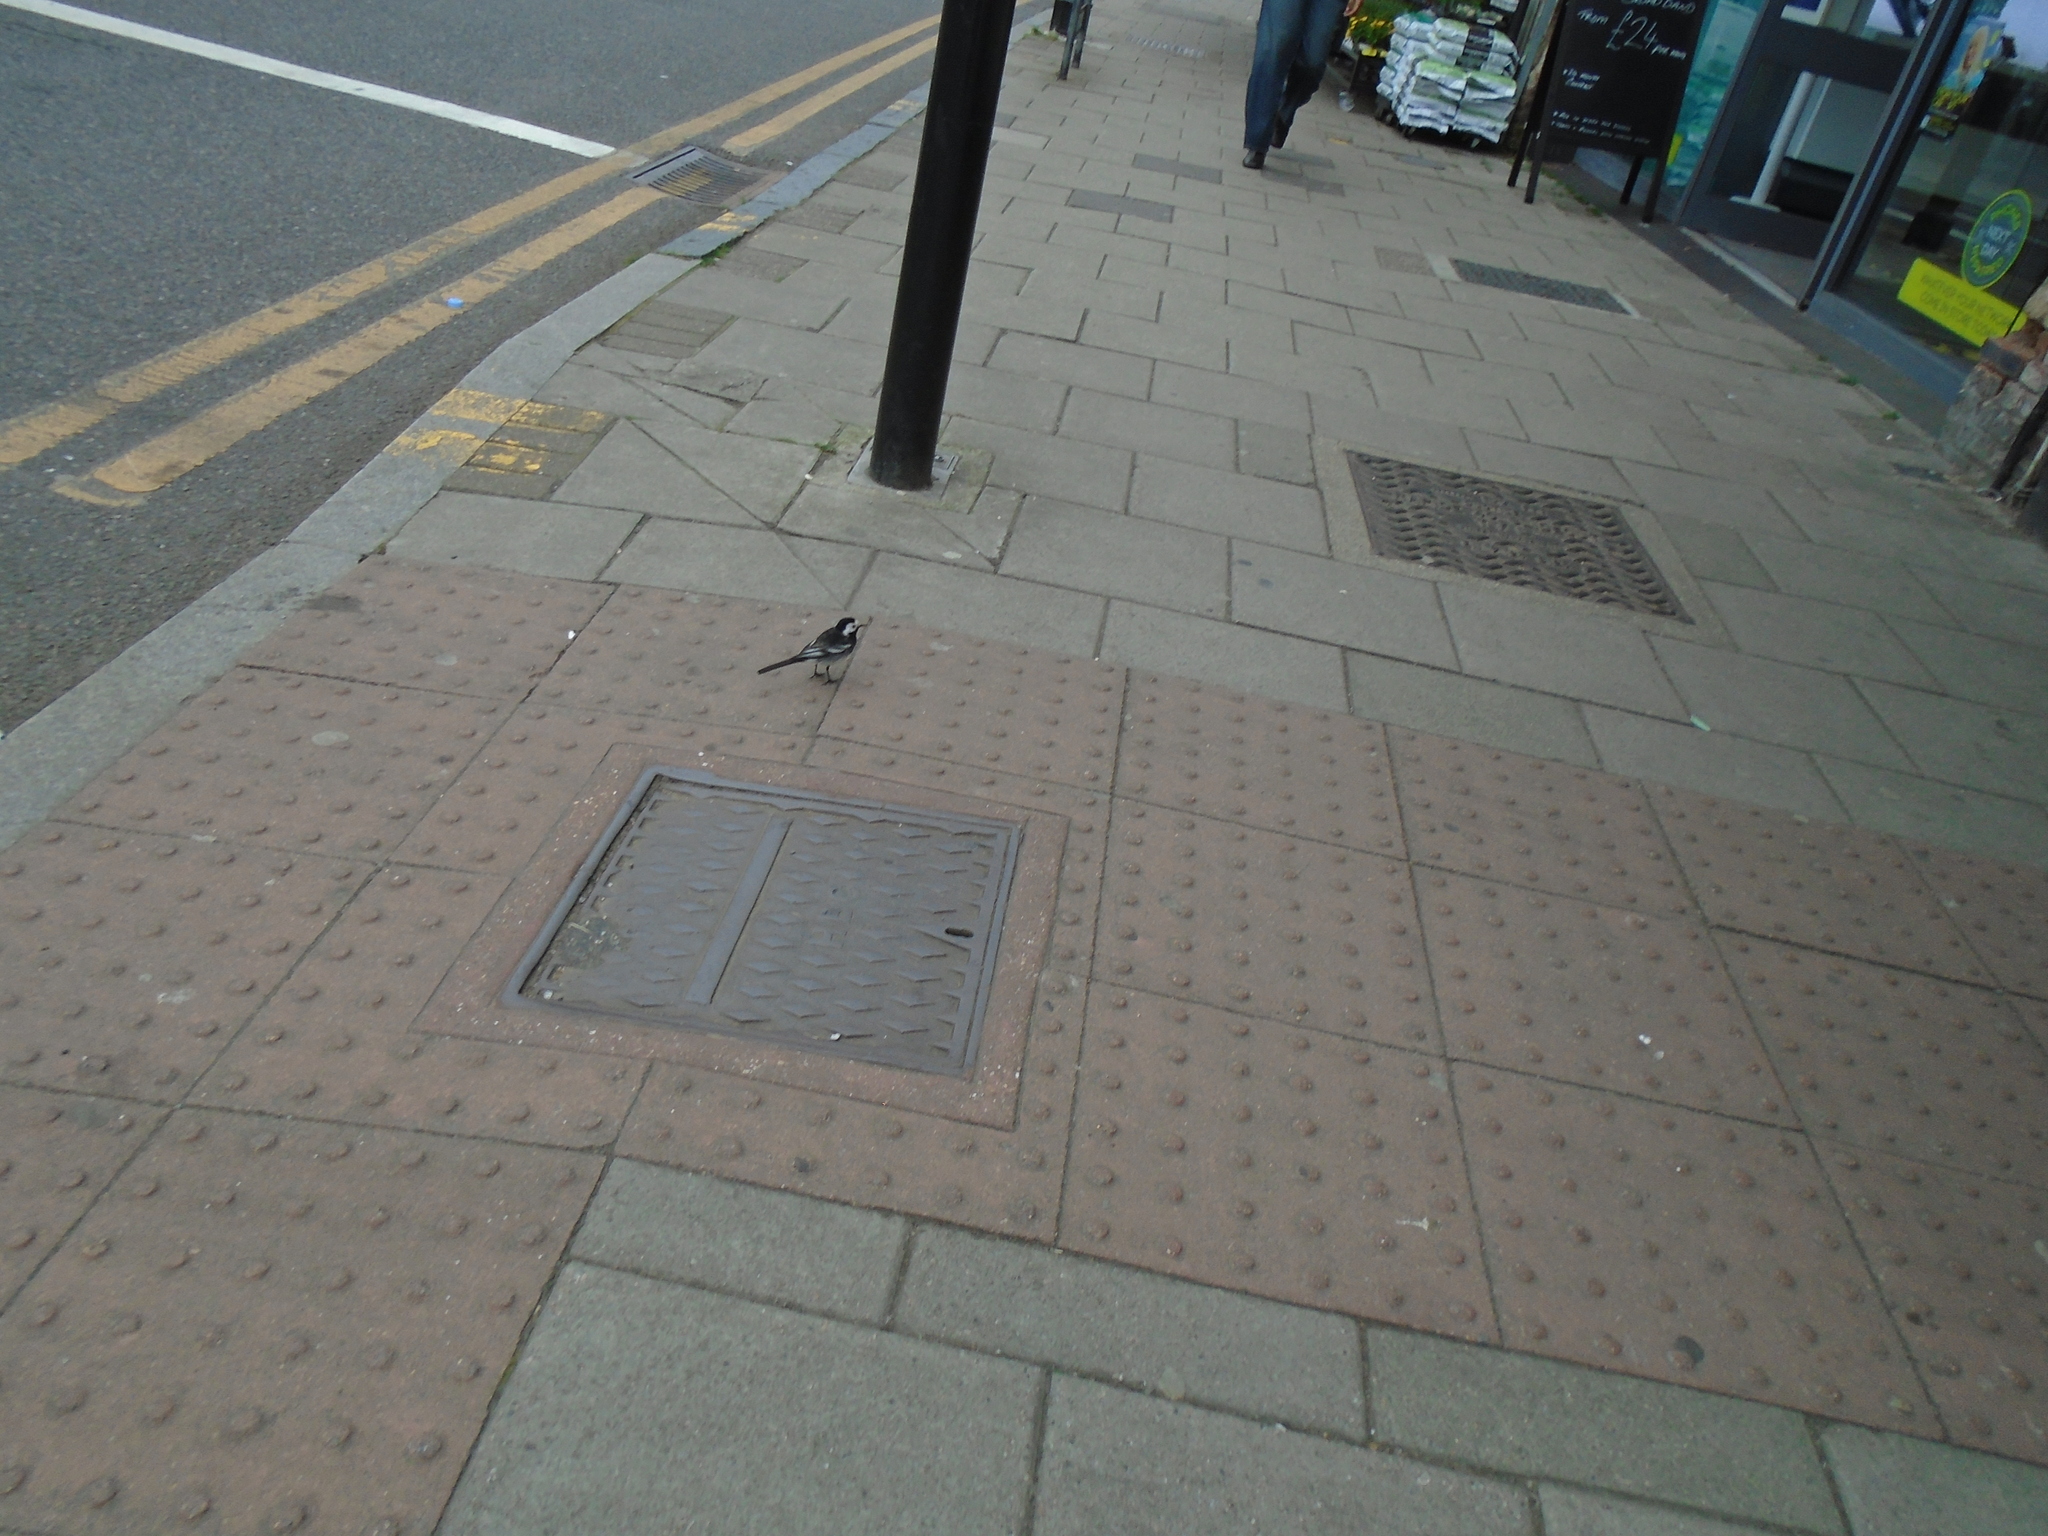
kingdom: Animalia
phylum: Chordata
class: Aves
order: Passeriformes
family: Motacillidae
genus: Motacilla
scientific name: Motacilla alba
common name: White wagtail
